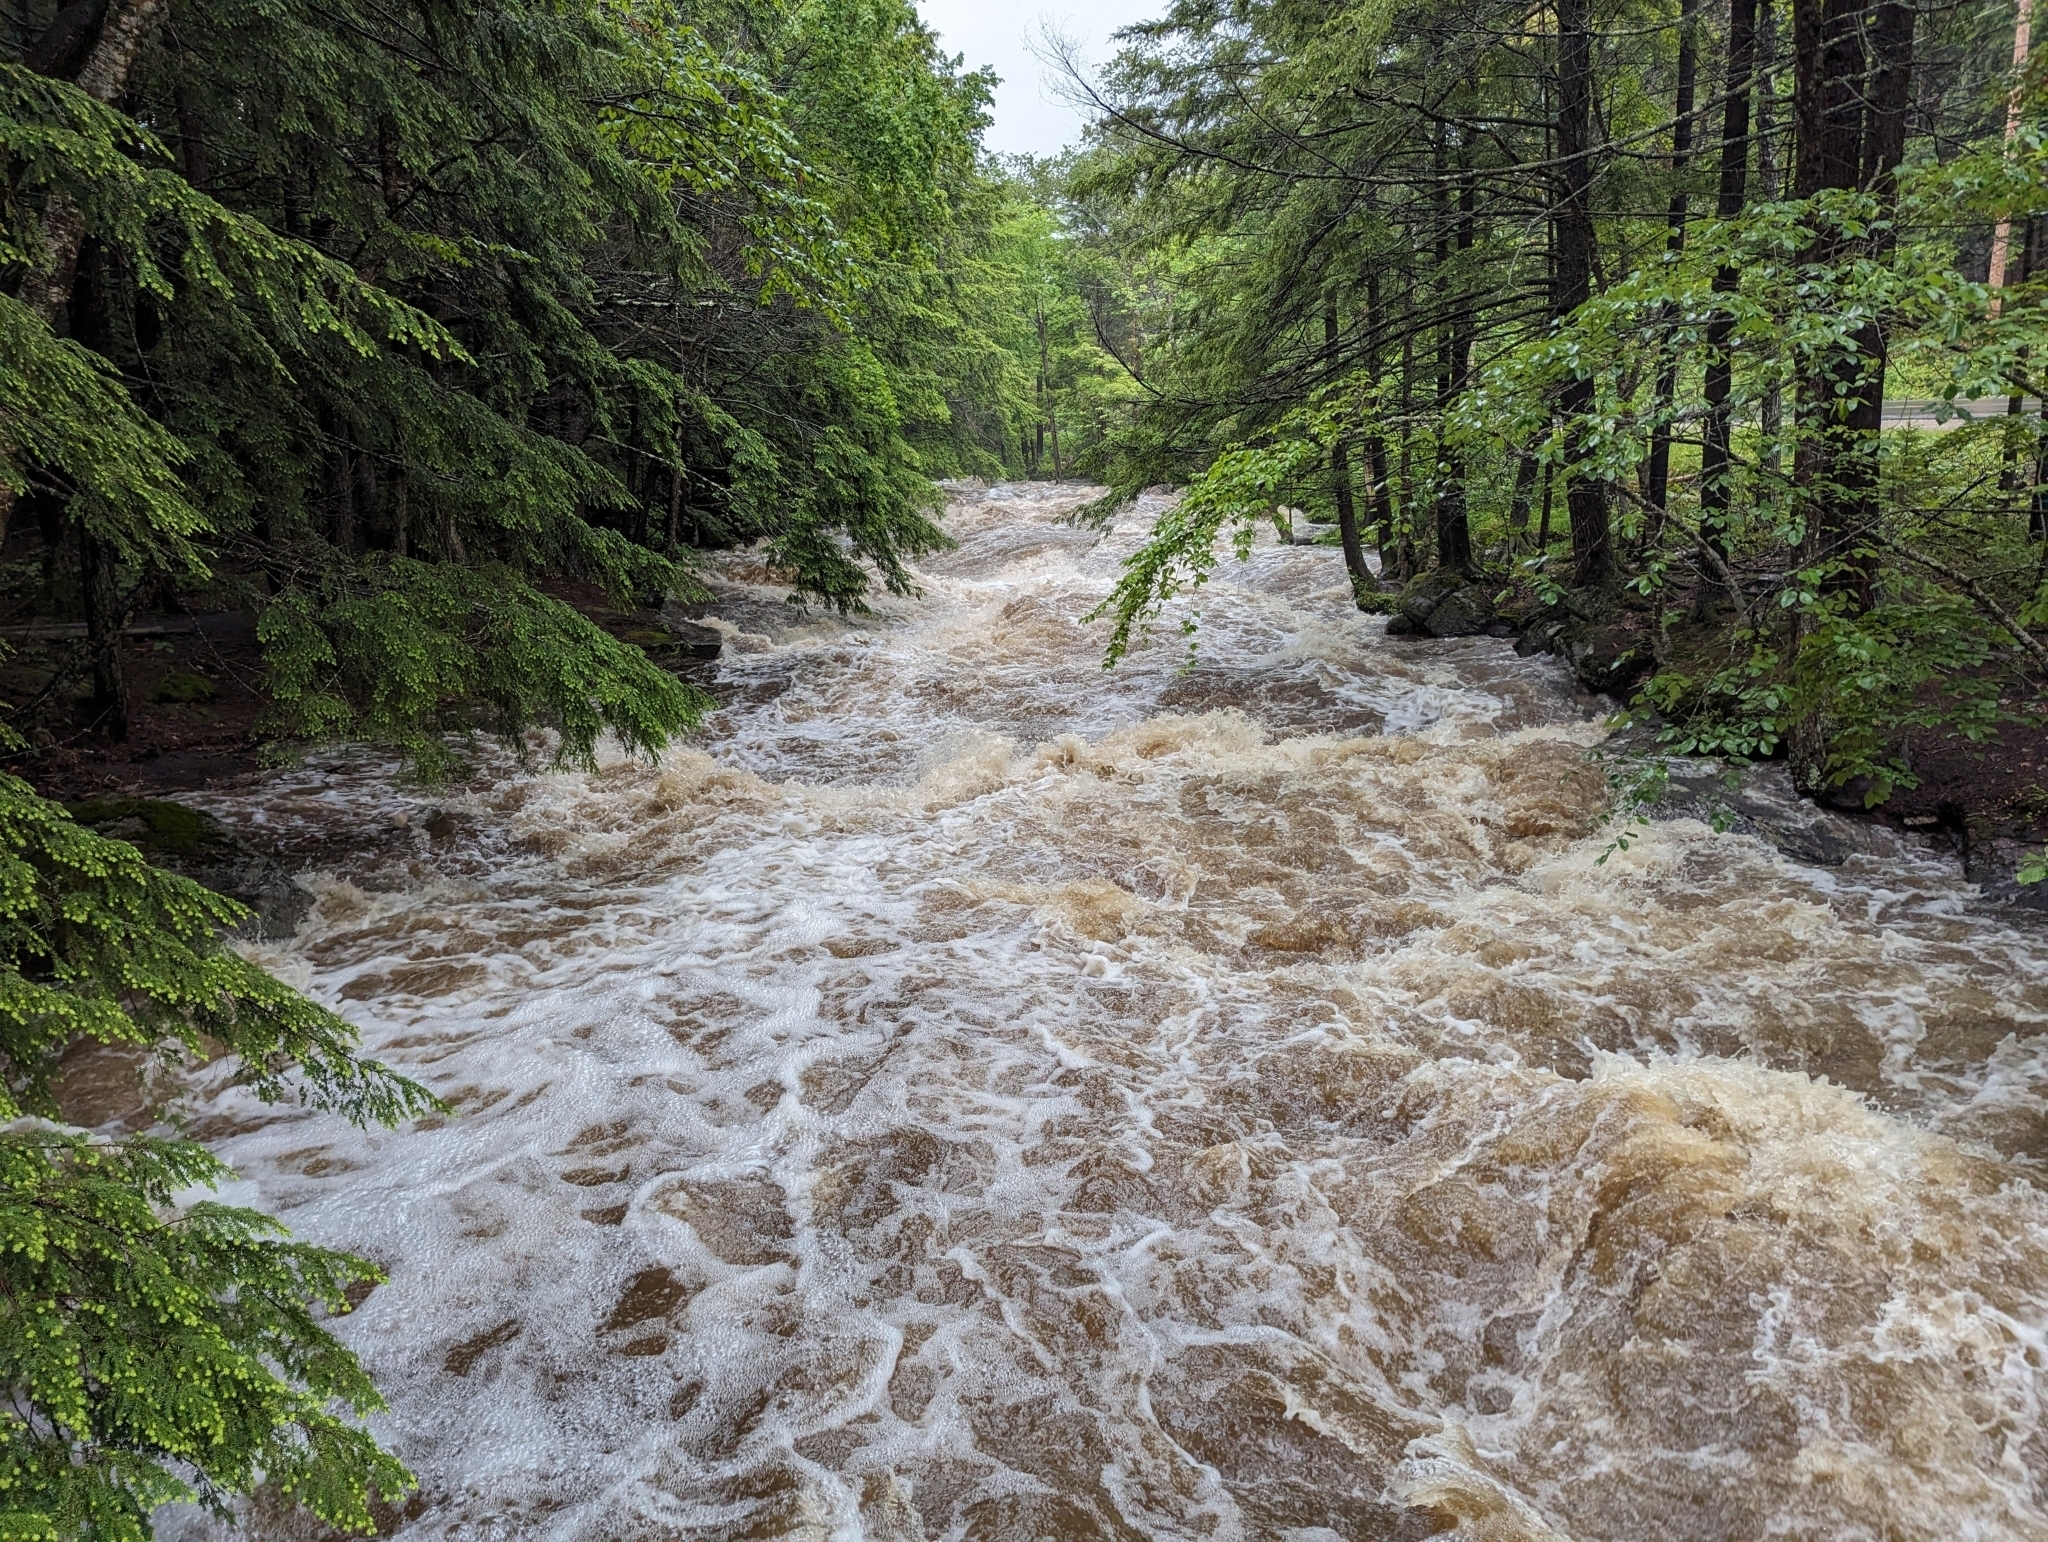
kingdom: Plantae
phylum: Tracheophyta
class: Pinopsida
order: Pinales
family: Pinaceae
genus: Tsuga
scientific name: Tsuga canadensis
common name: Eastern hemlock
